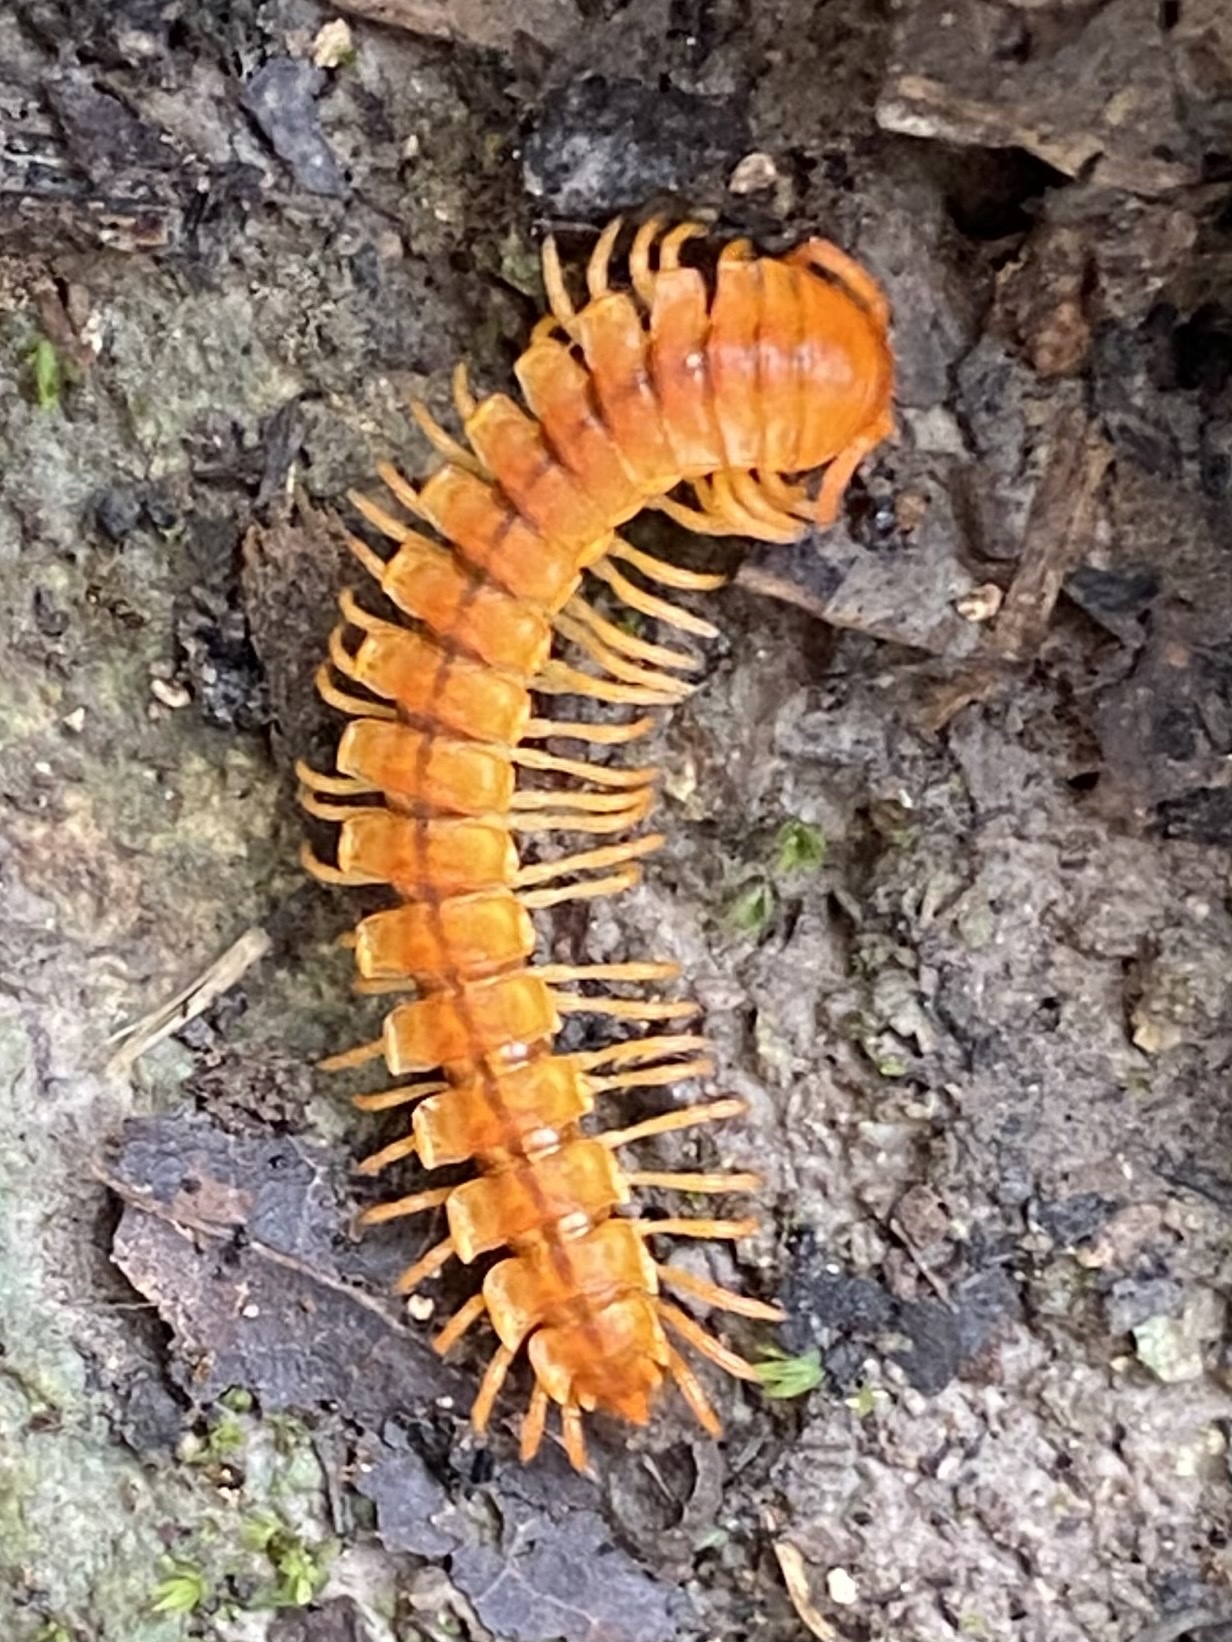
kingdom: Animalia
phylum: Arthropoda
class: Diplopoda
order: Polydesmida
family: Rhachodesmidae
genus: Aceratophallus
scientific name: Aceratophallus maya
